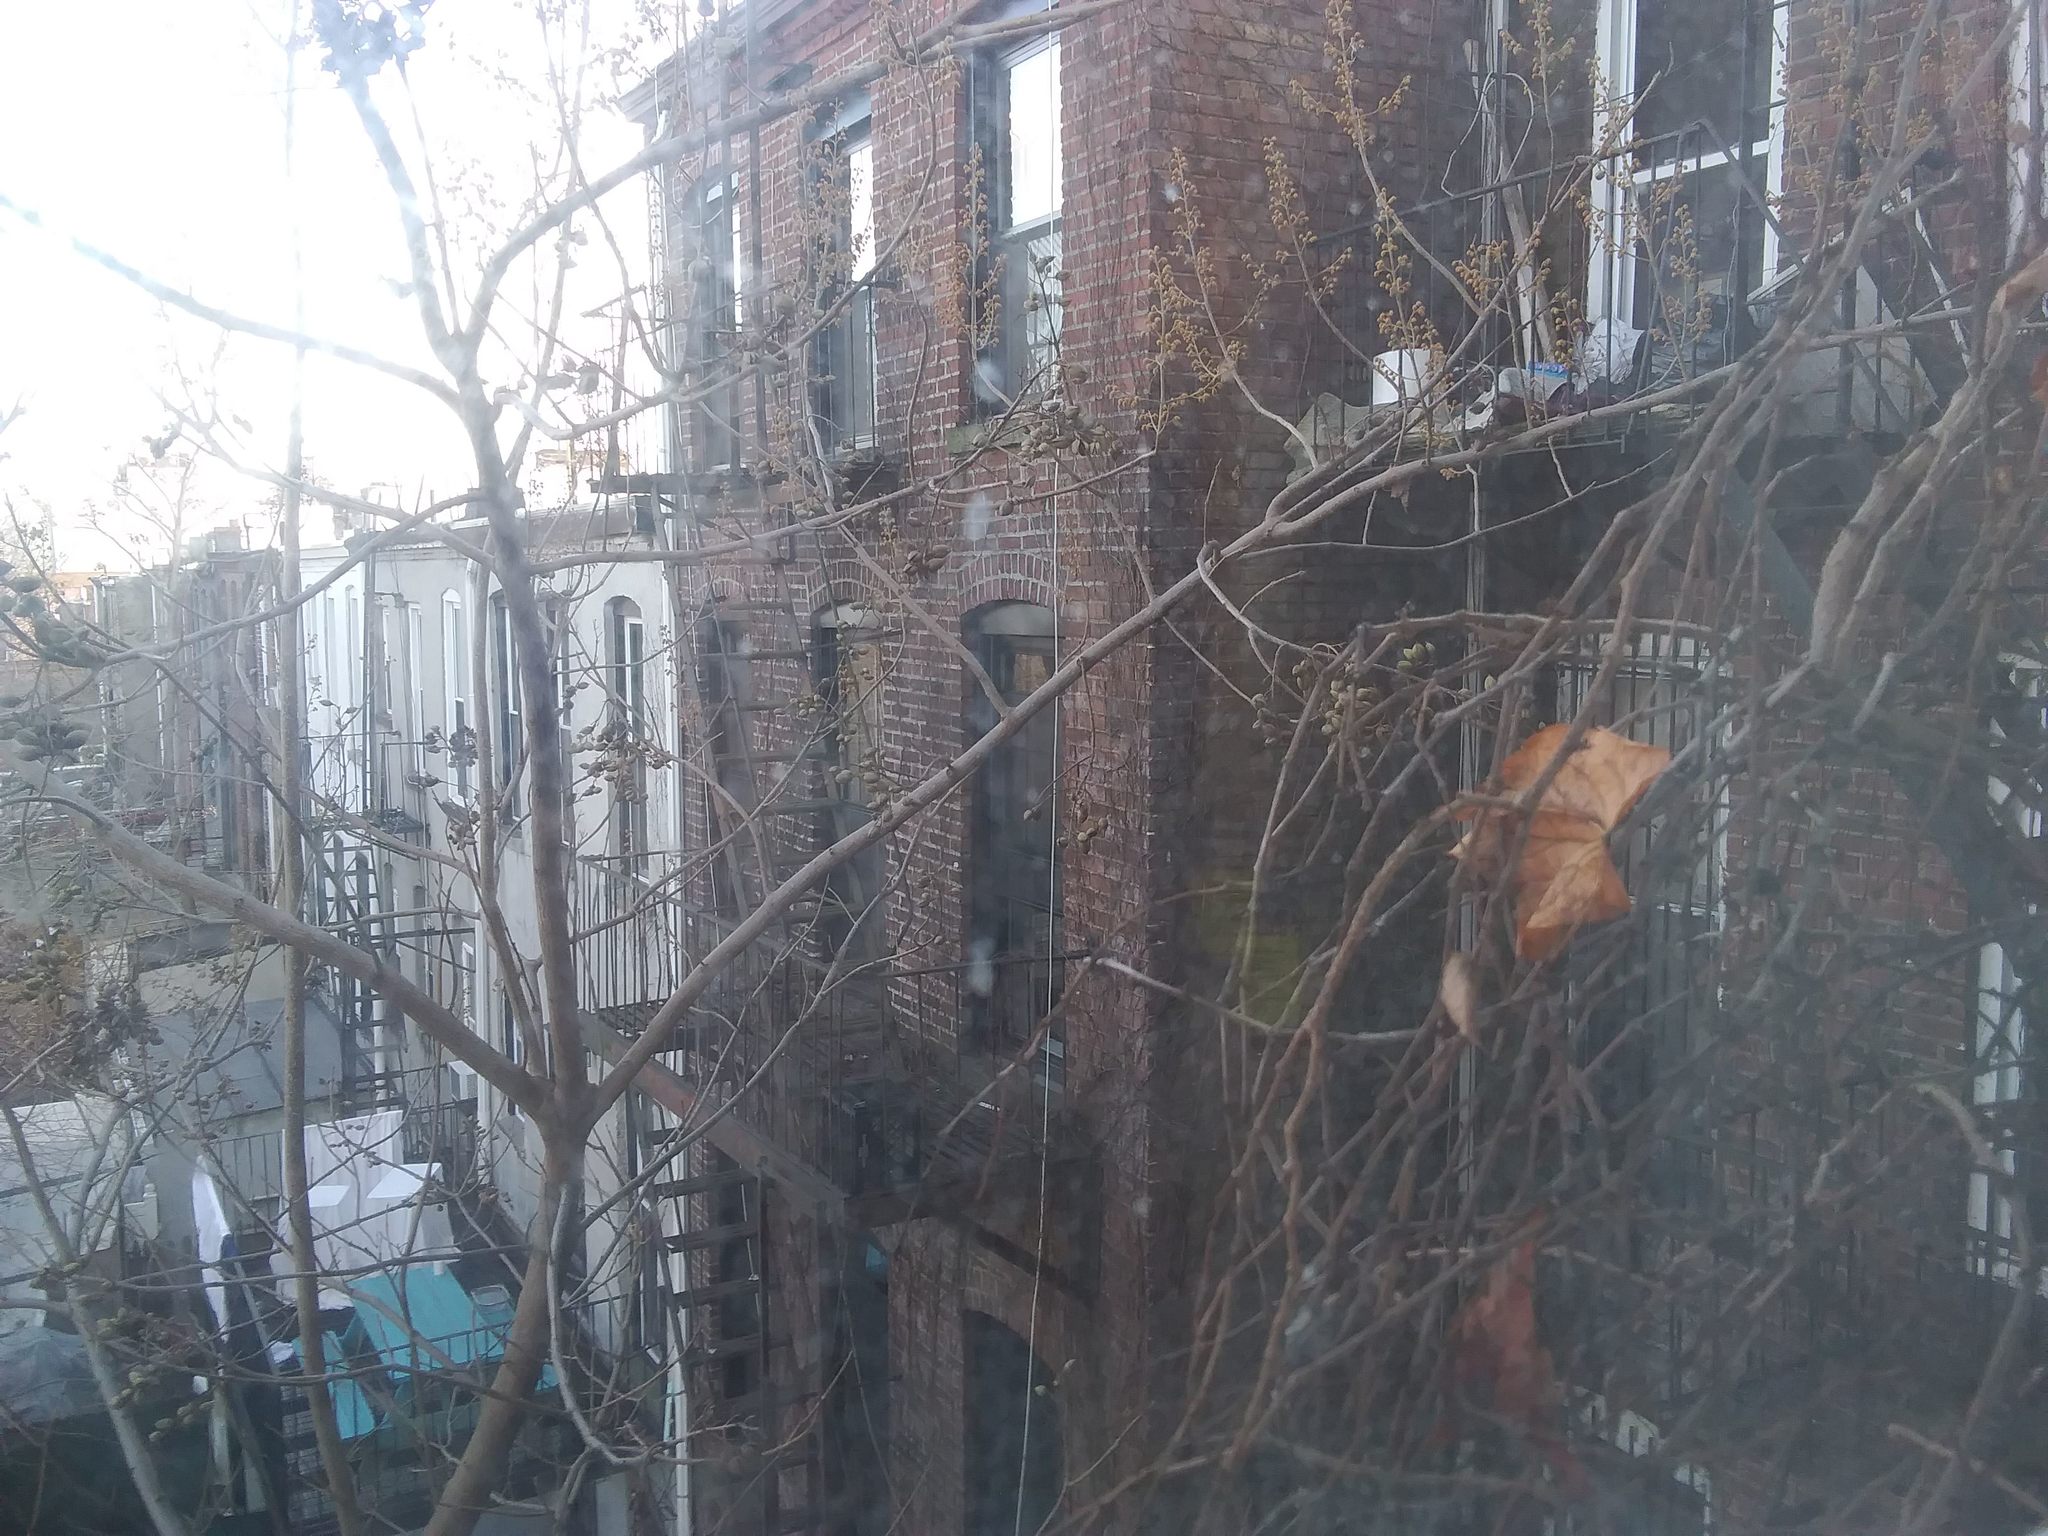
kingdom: Plantae
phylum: Tracheophyta
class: Magnoliopsida
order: Lamiales
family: Paulowniaceae
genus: Paulownia
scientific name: Paulownia tomentosa
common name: Foxglove-tree
